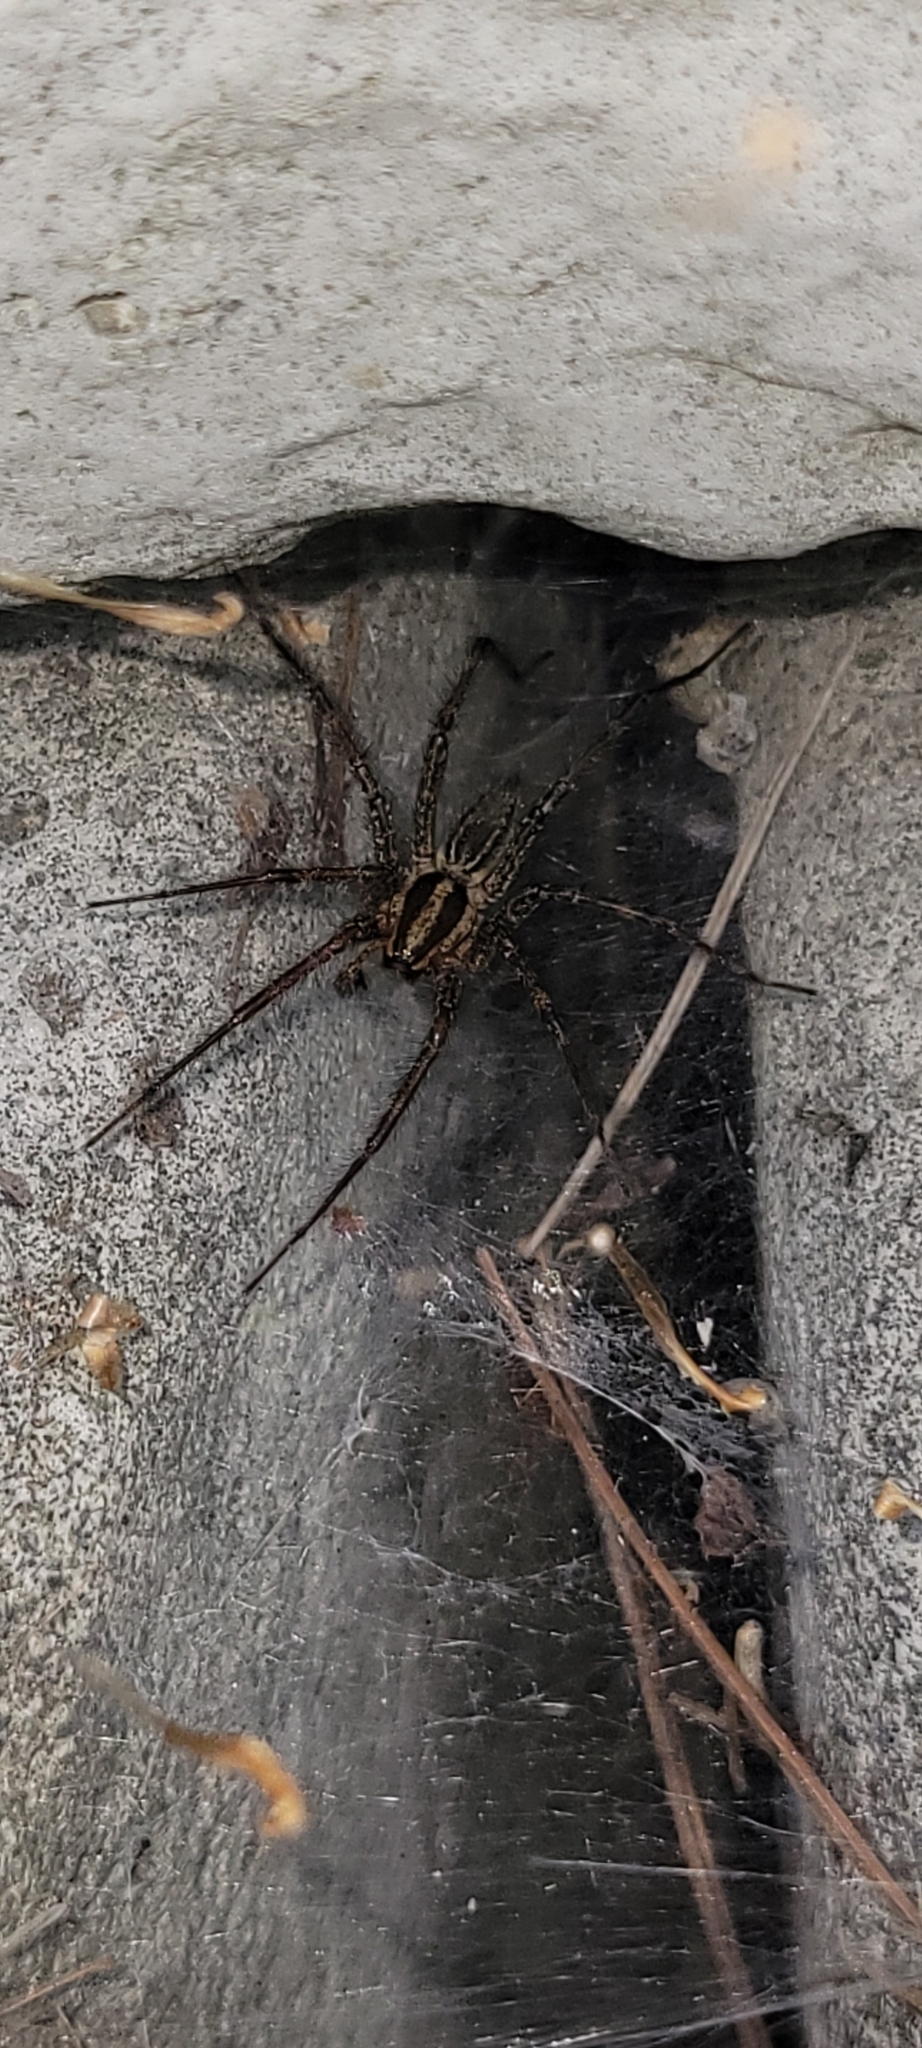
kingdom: Animalia
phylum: Arthropoda
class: Arachnida
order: Araneae
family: Agelenidae
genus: Agelenopsis
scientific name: Agelenopsis
